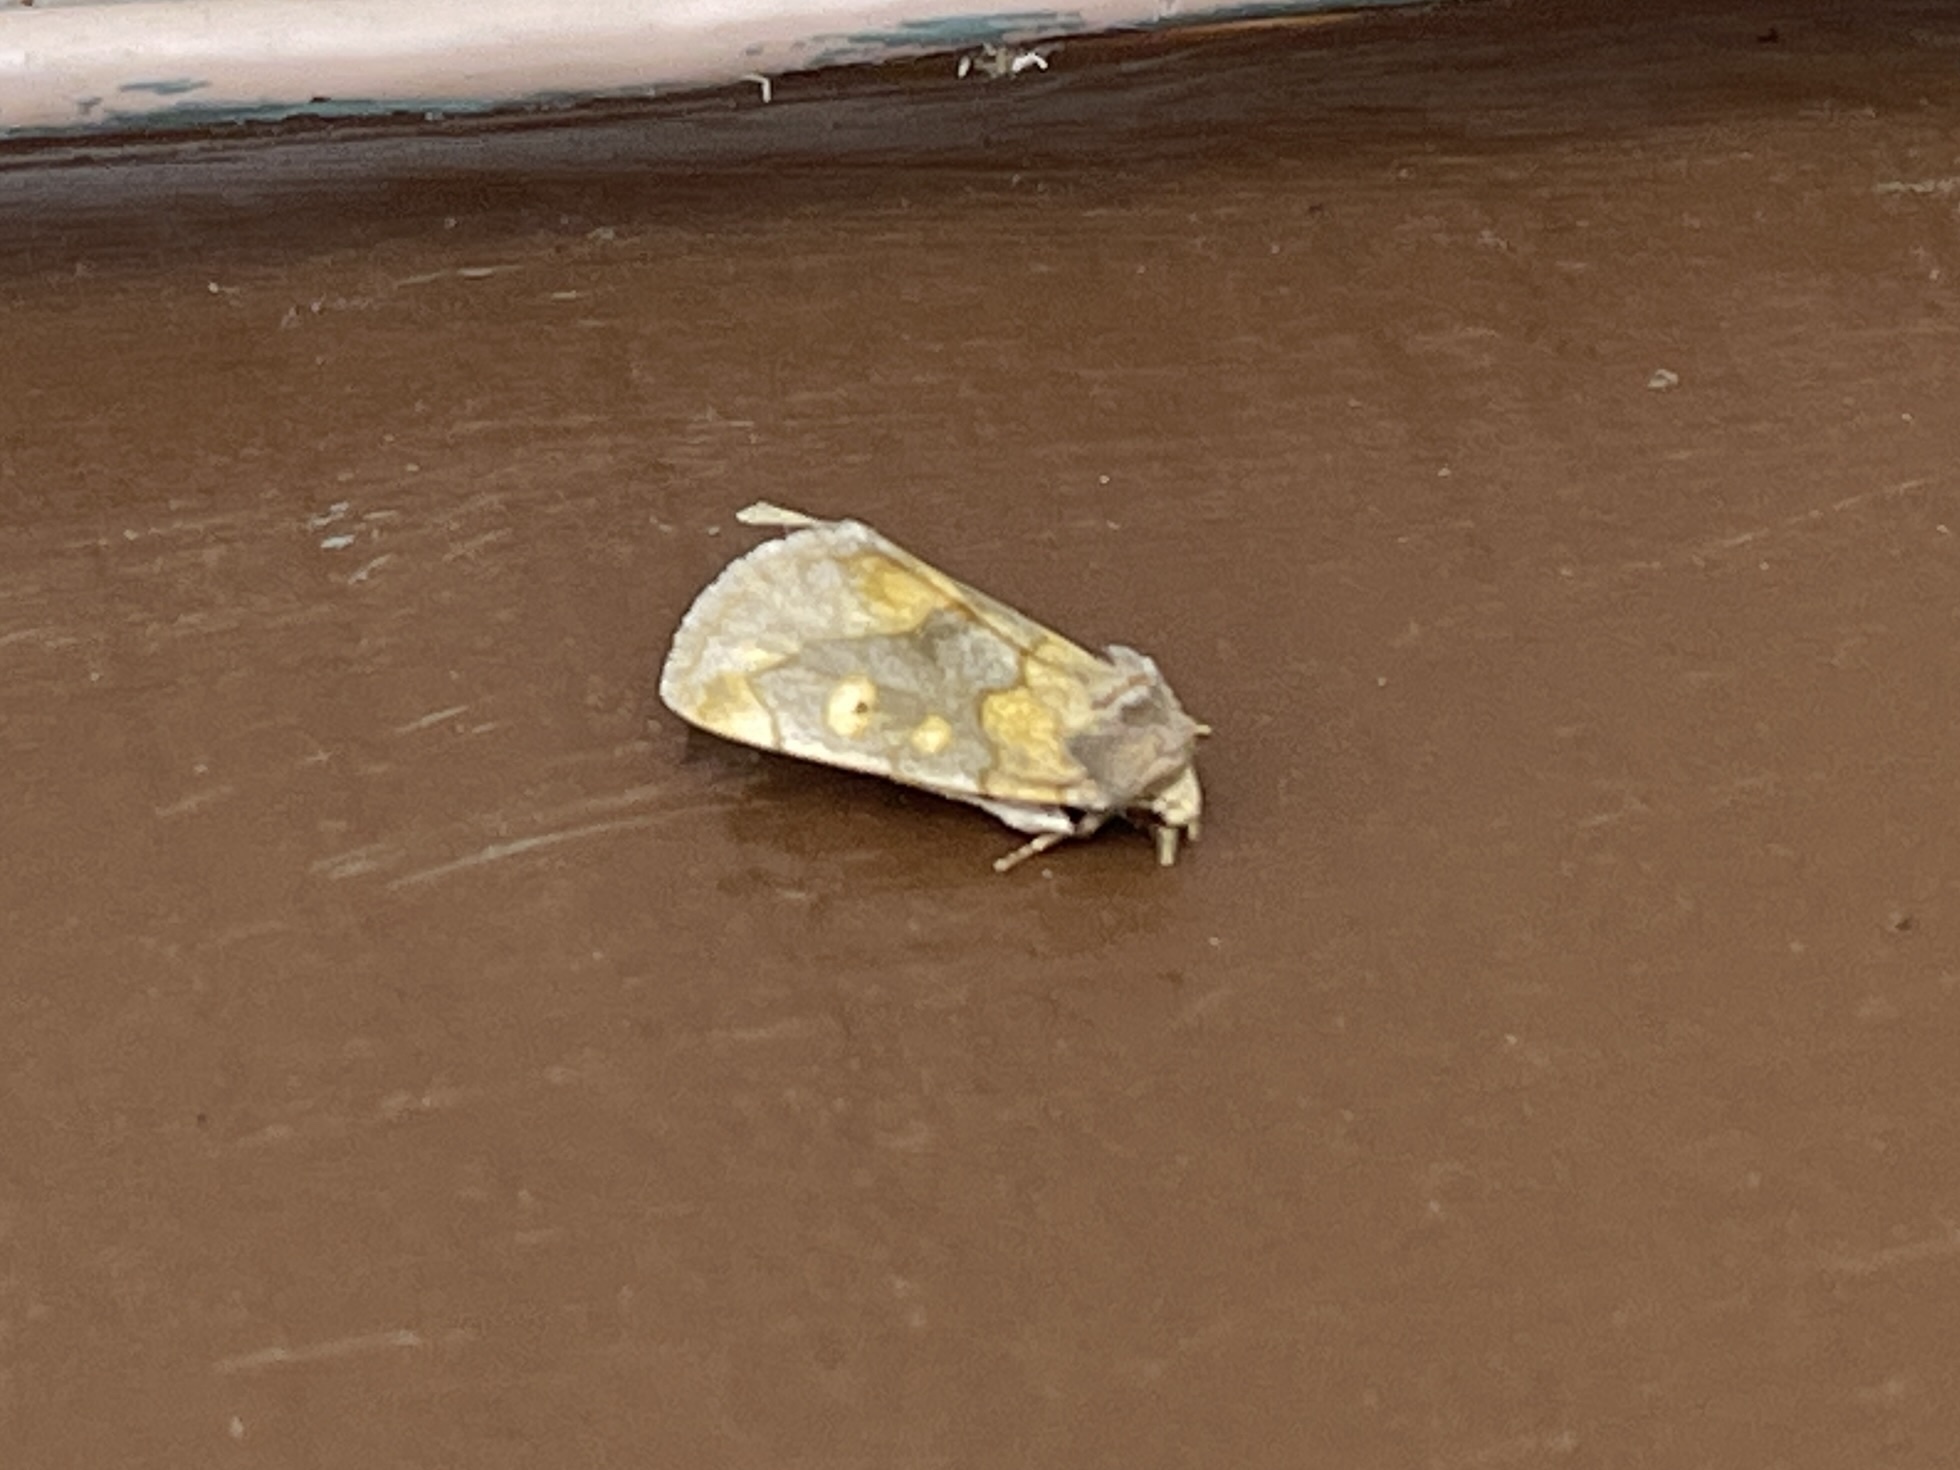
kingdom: Animalia
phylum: Arthropoda
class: Insecta
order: Lepidoptera
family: Noctuidae
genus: Basilodes
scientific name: Basilodes chrysopis
